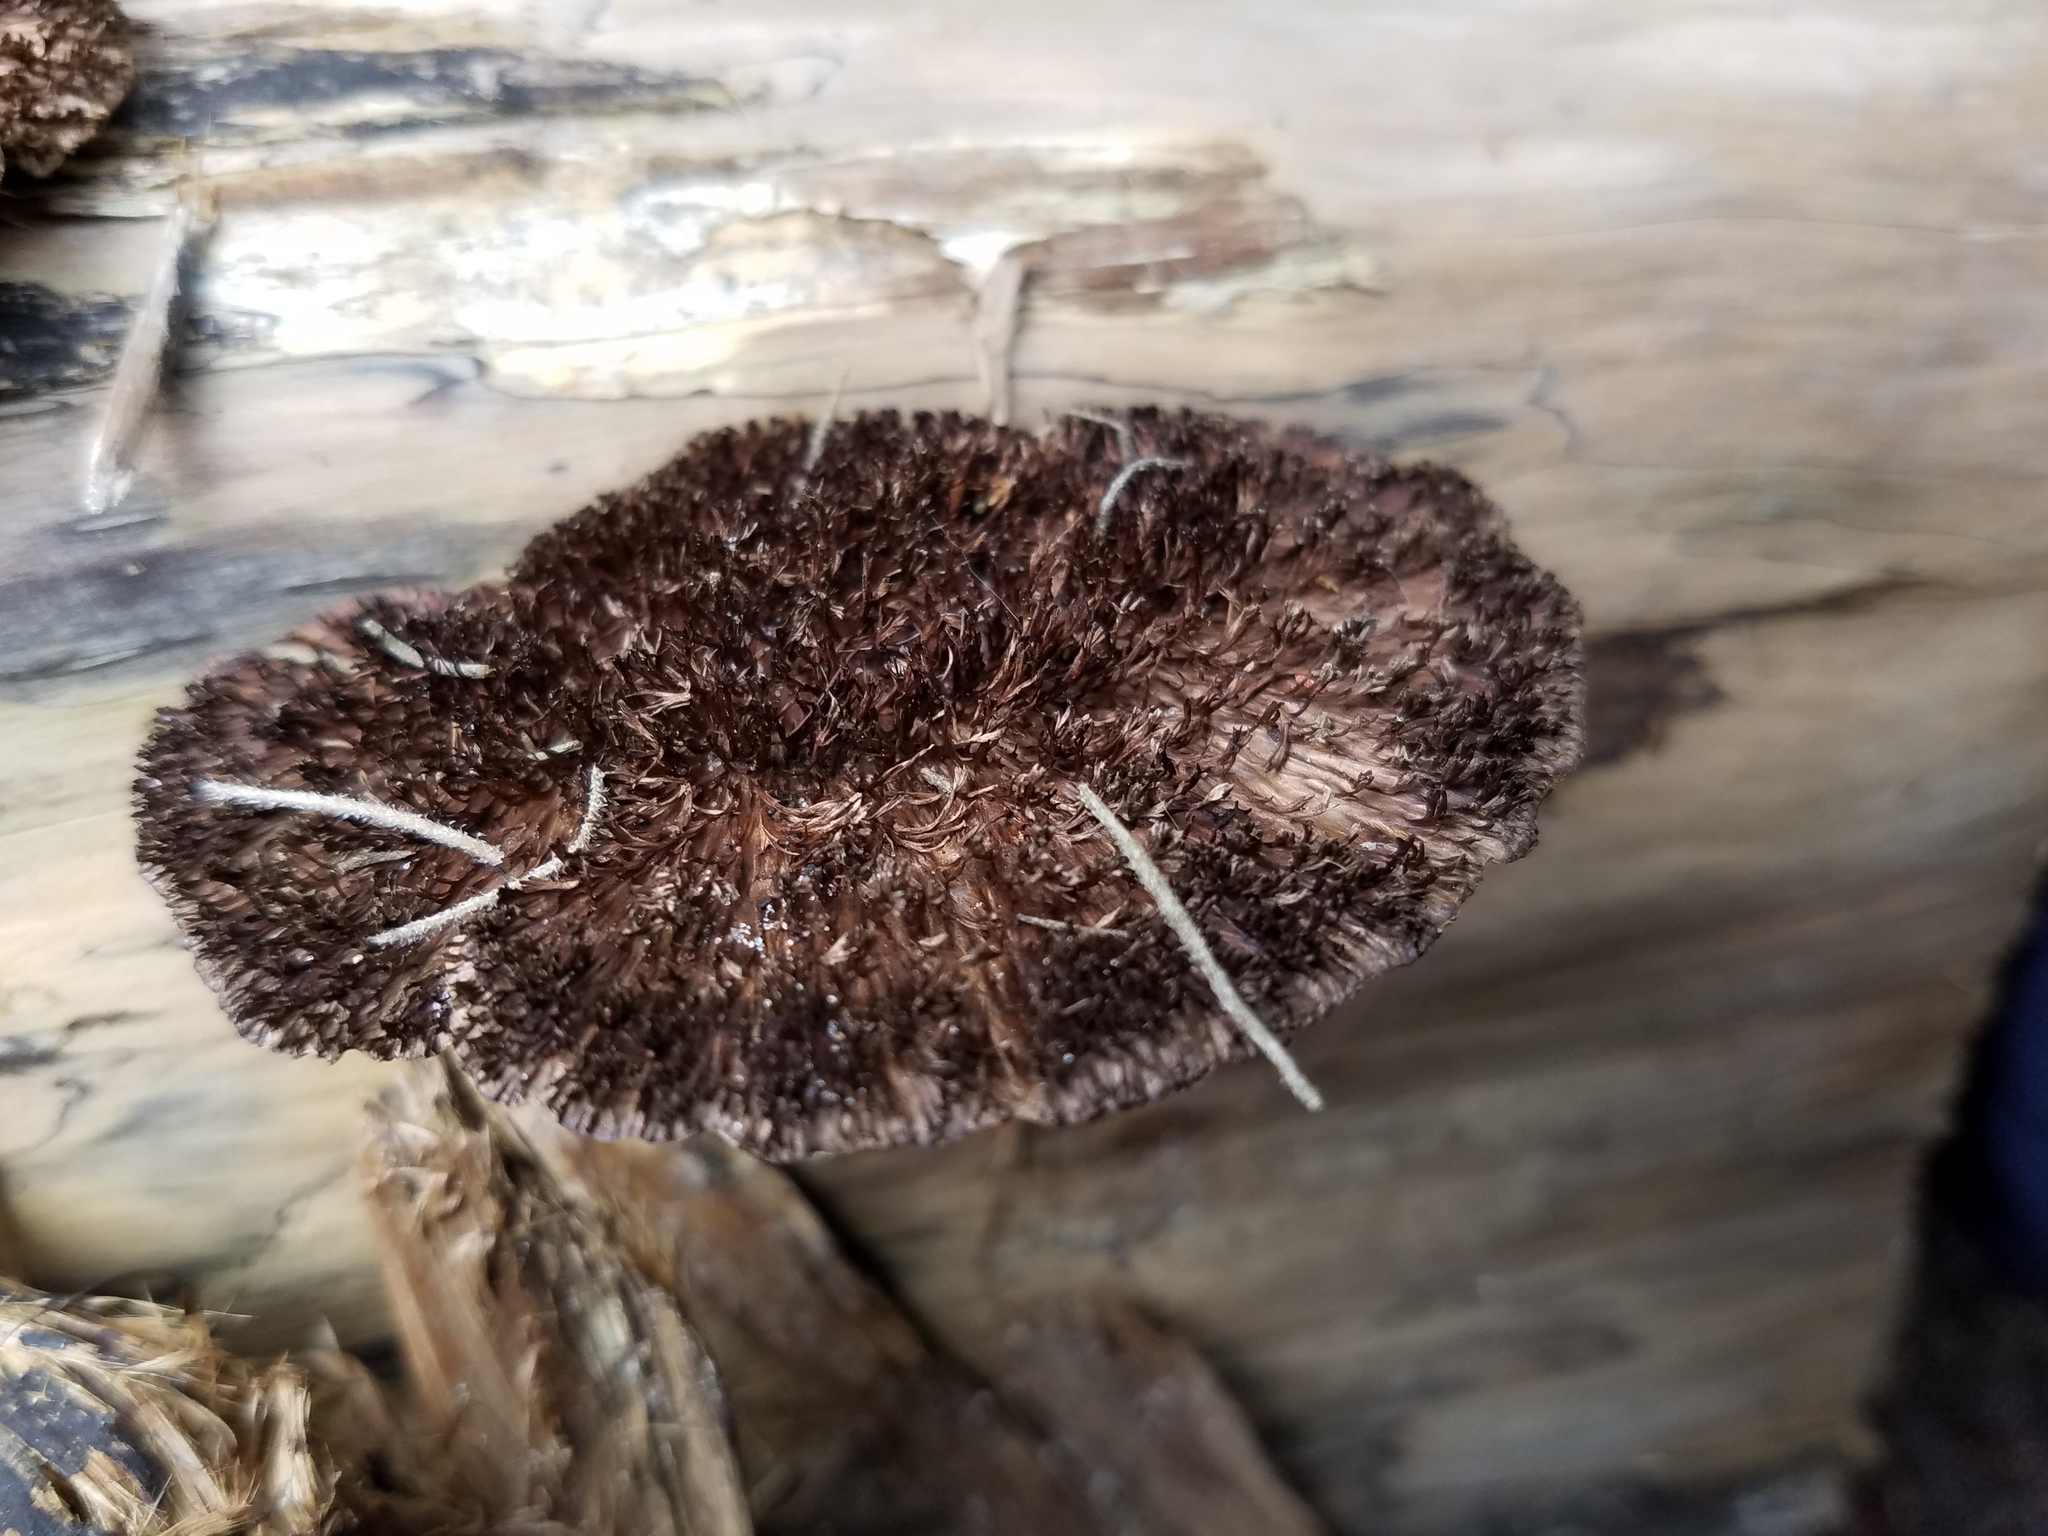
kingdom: Fungi
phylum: Basidiomycota
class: Agaricomycetes
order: Polyporales
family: Cerrenaceae
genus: Cerrena
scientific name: Cerrena hydnoides
